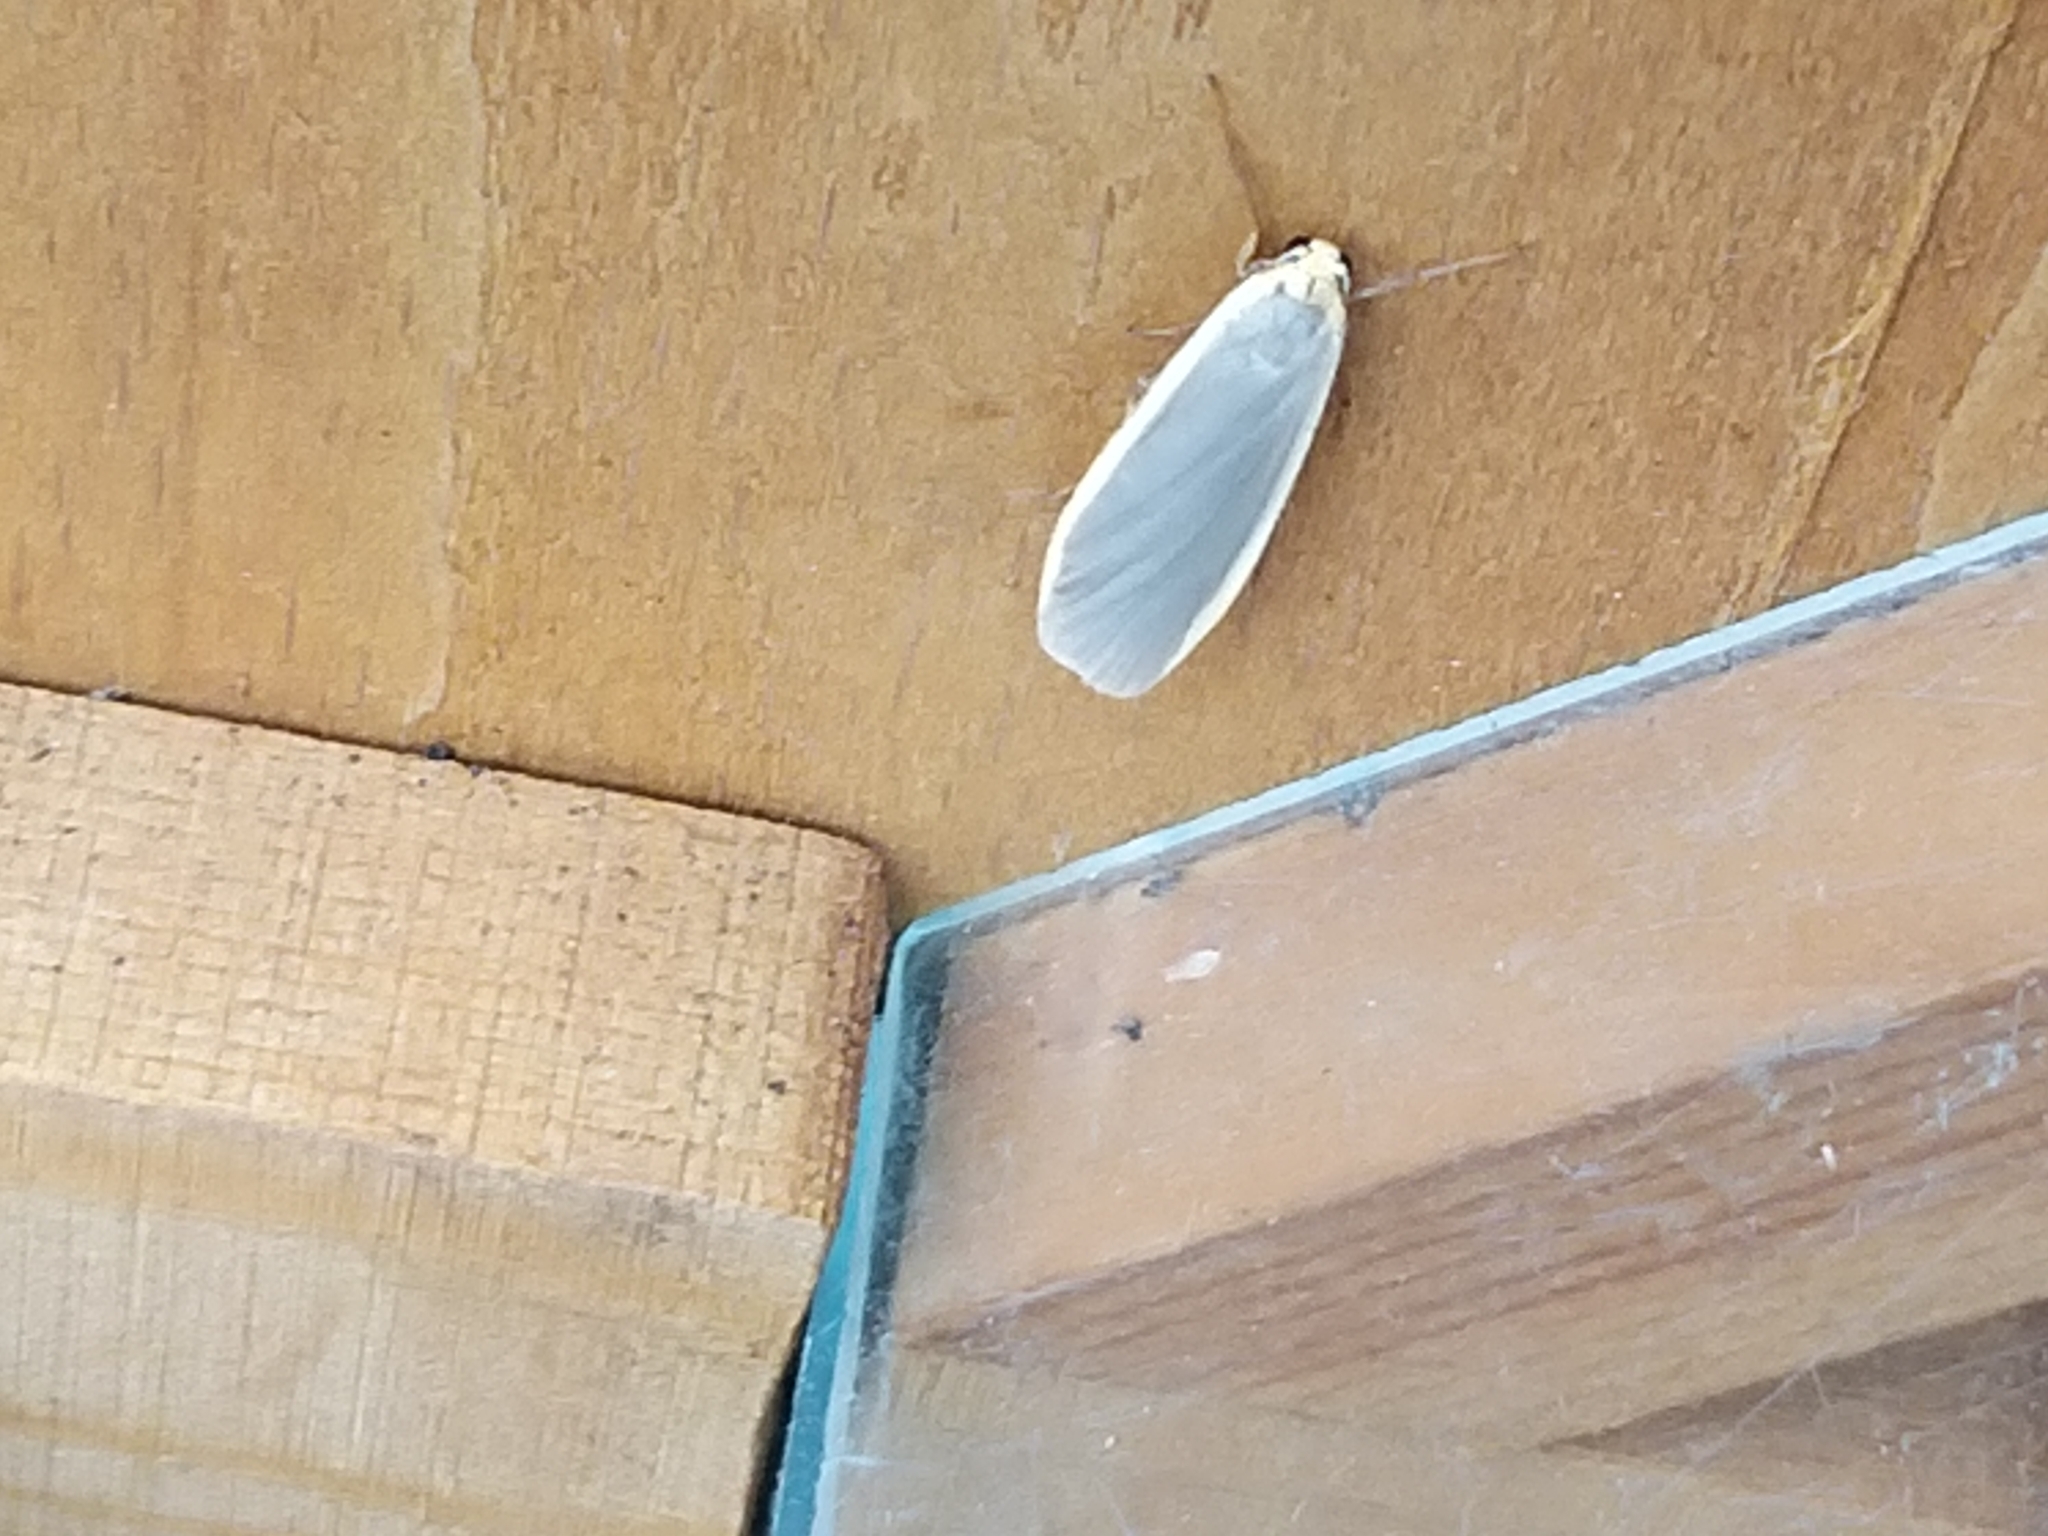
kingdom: Animalia
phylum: Arthropoda
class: Insecta
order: Lepidoptera
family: Erebidae
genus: Nyea
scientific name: Nyea lurideola
